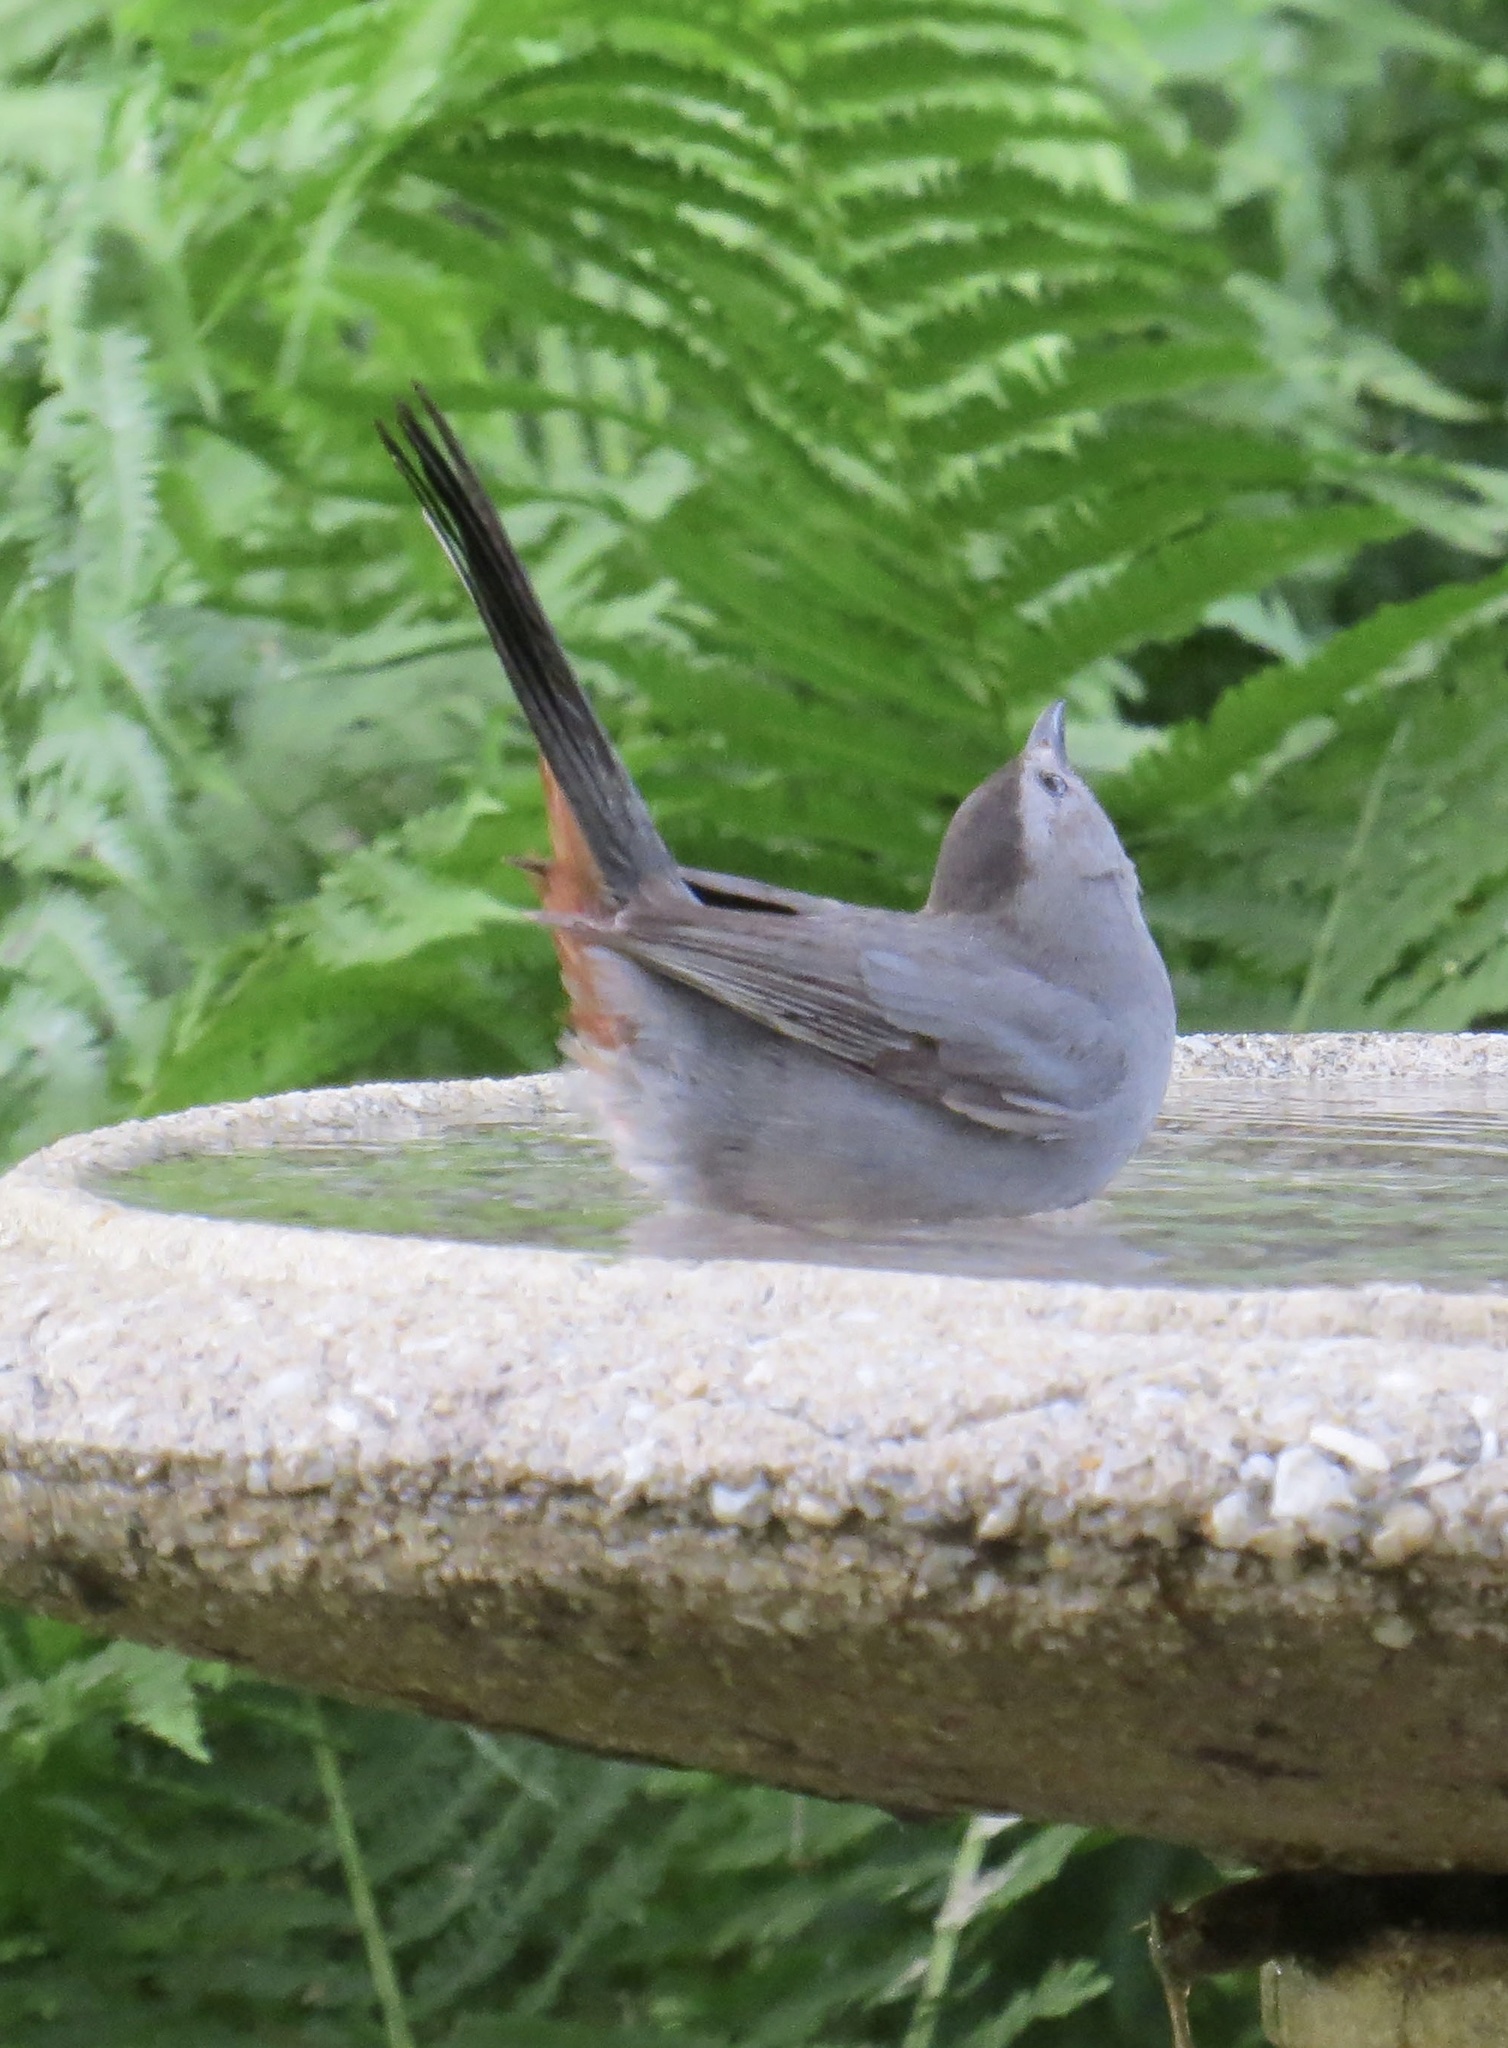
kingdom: Animalia
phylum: Chordata
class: Aves
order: Passeriformes
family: Mimidae
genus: Dumetella
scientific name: Dumetella carolinensis
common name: Gray catbird
